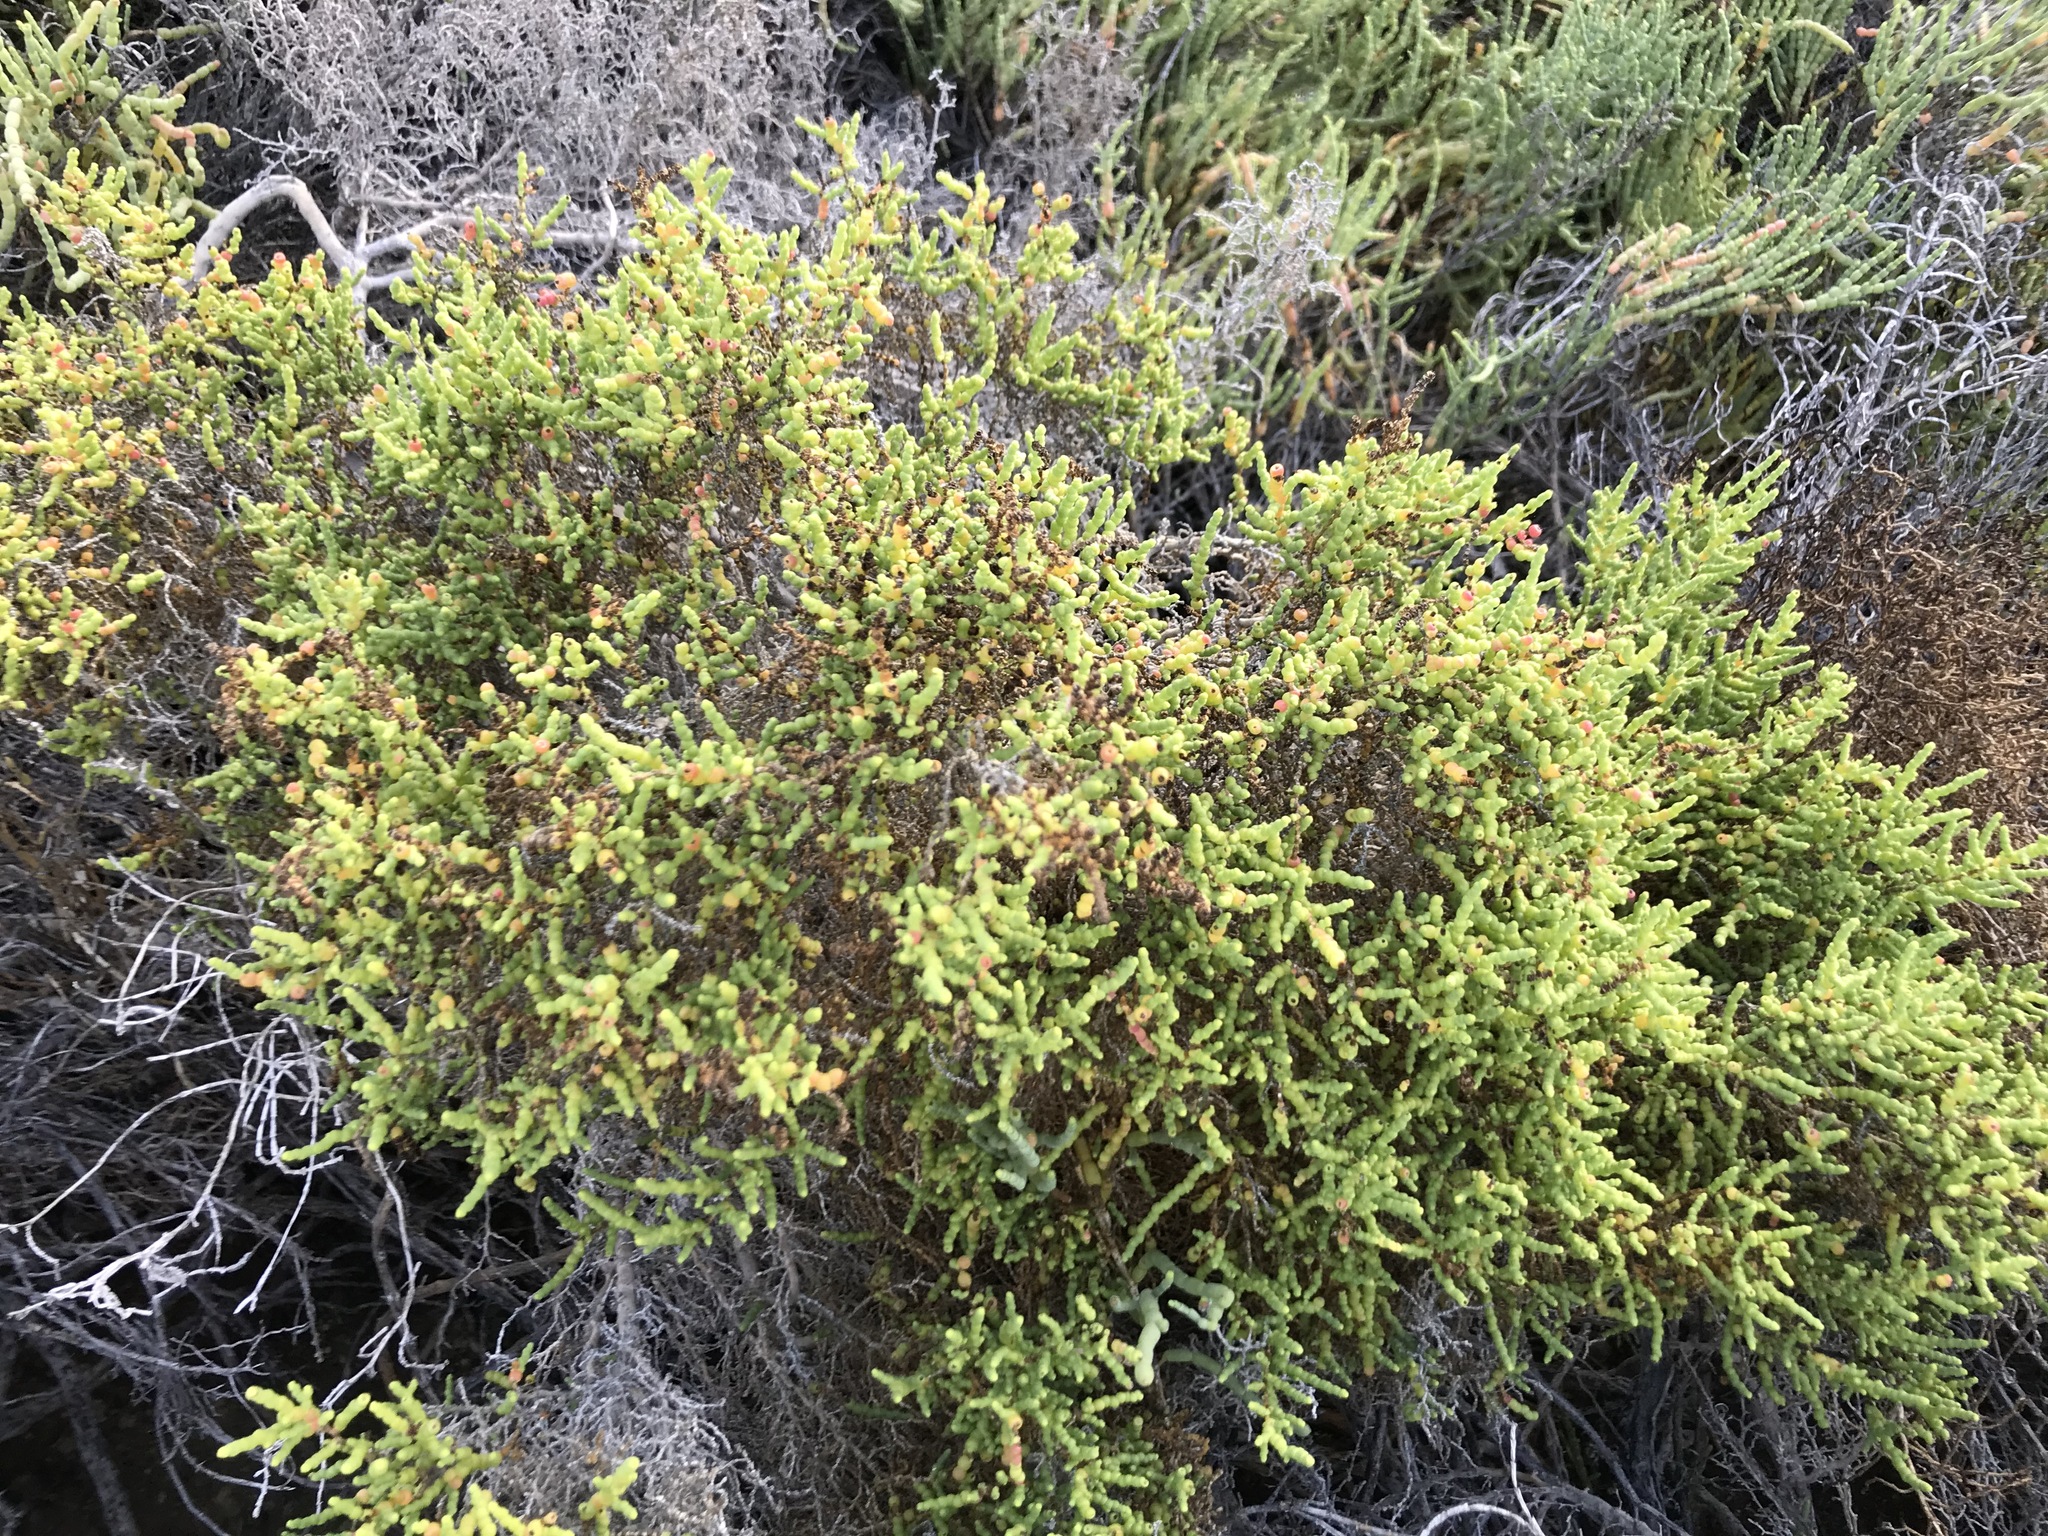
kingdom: Plantae
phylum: Tracheophyta
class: Magnoliopsida
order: Caryophyllales
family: Amaranthaceae
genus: Allenrolfea
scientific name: Allenrolfea occidentalis
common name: Iodine-bush
